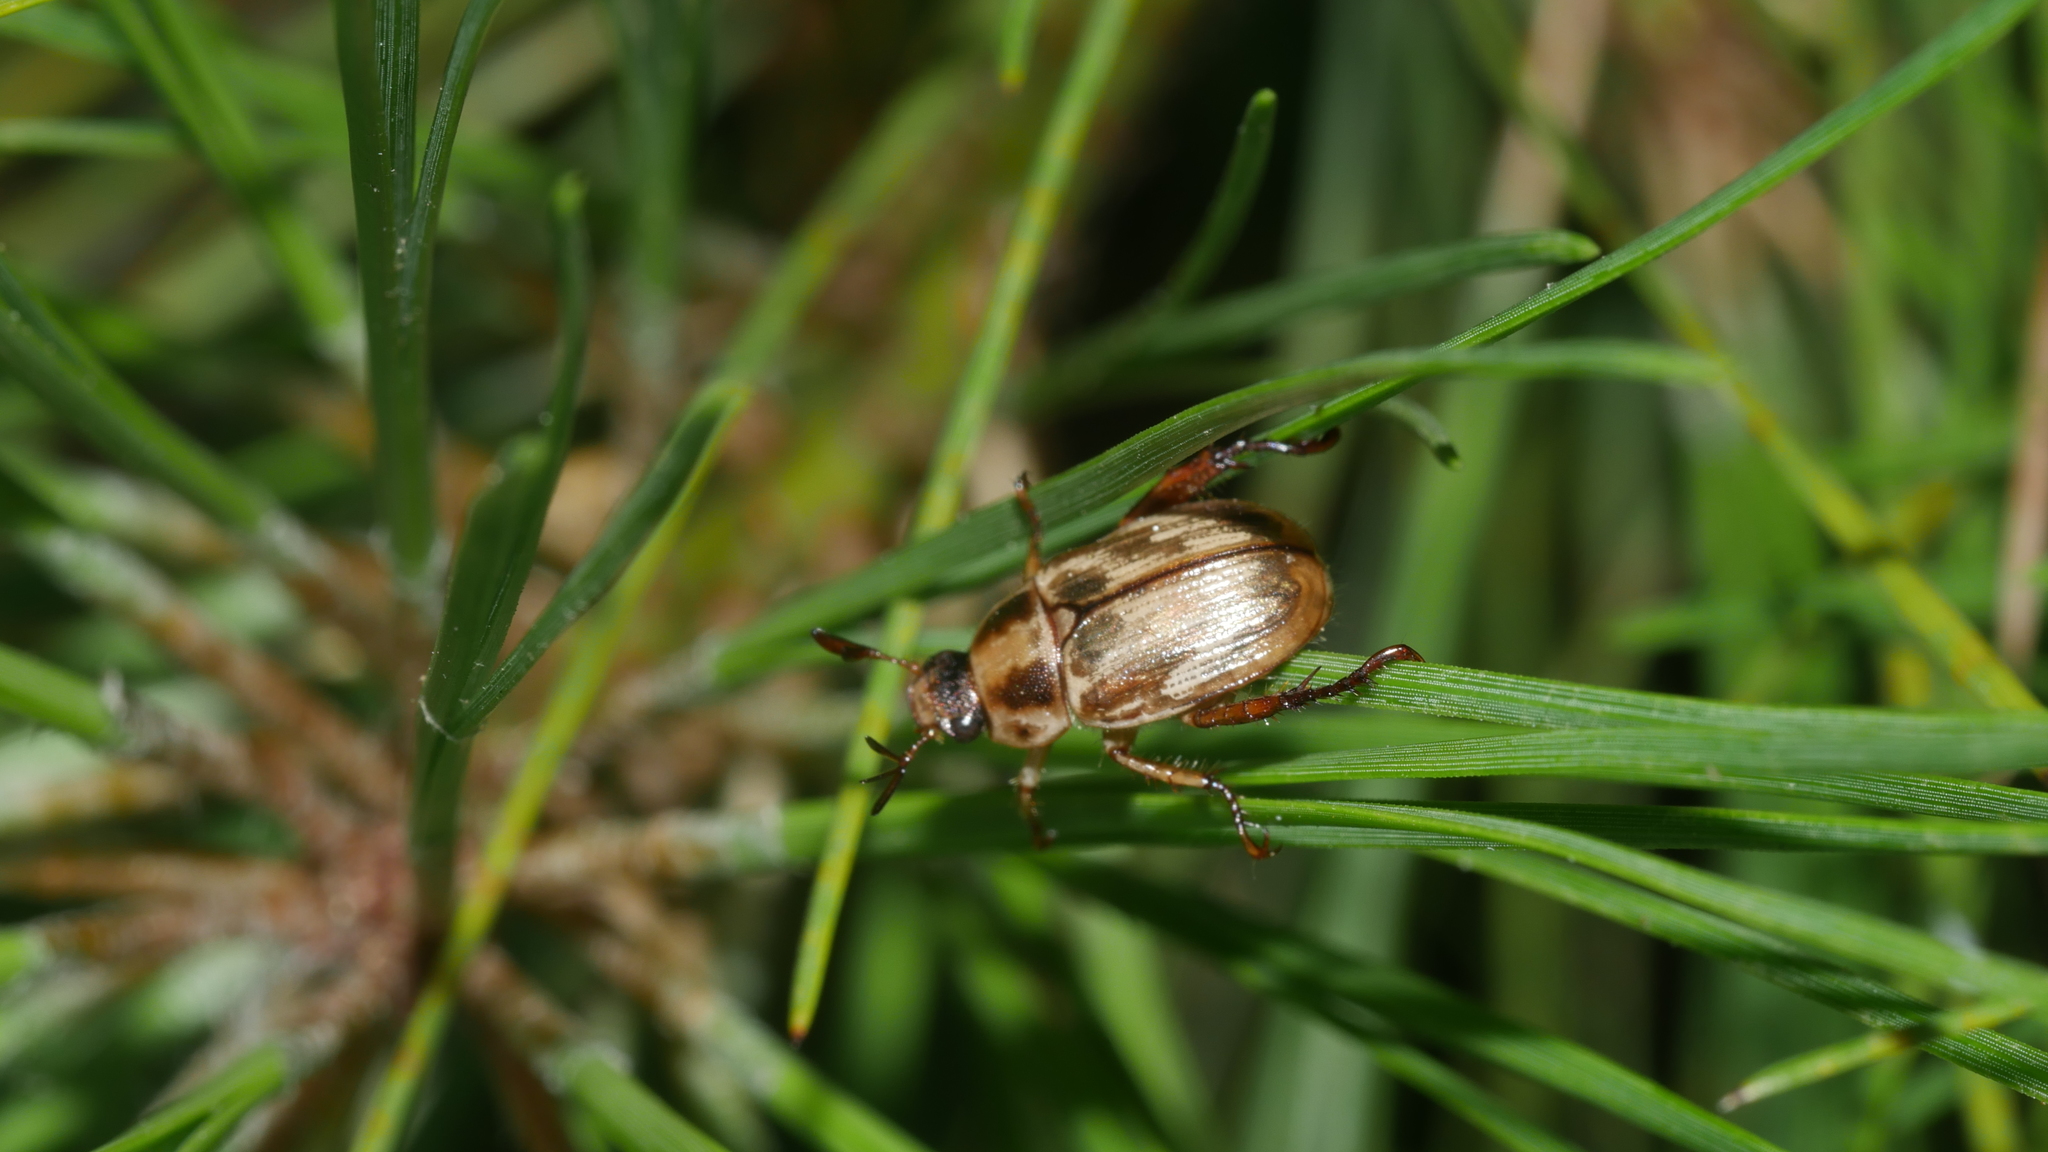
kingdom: Animalia
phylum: Arthropoda
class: Insecta
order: Coleoptera
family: Scarabaeidae
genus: Exomala
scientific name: Exomala orientalis
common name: Oriental beetle
